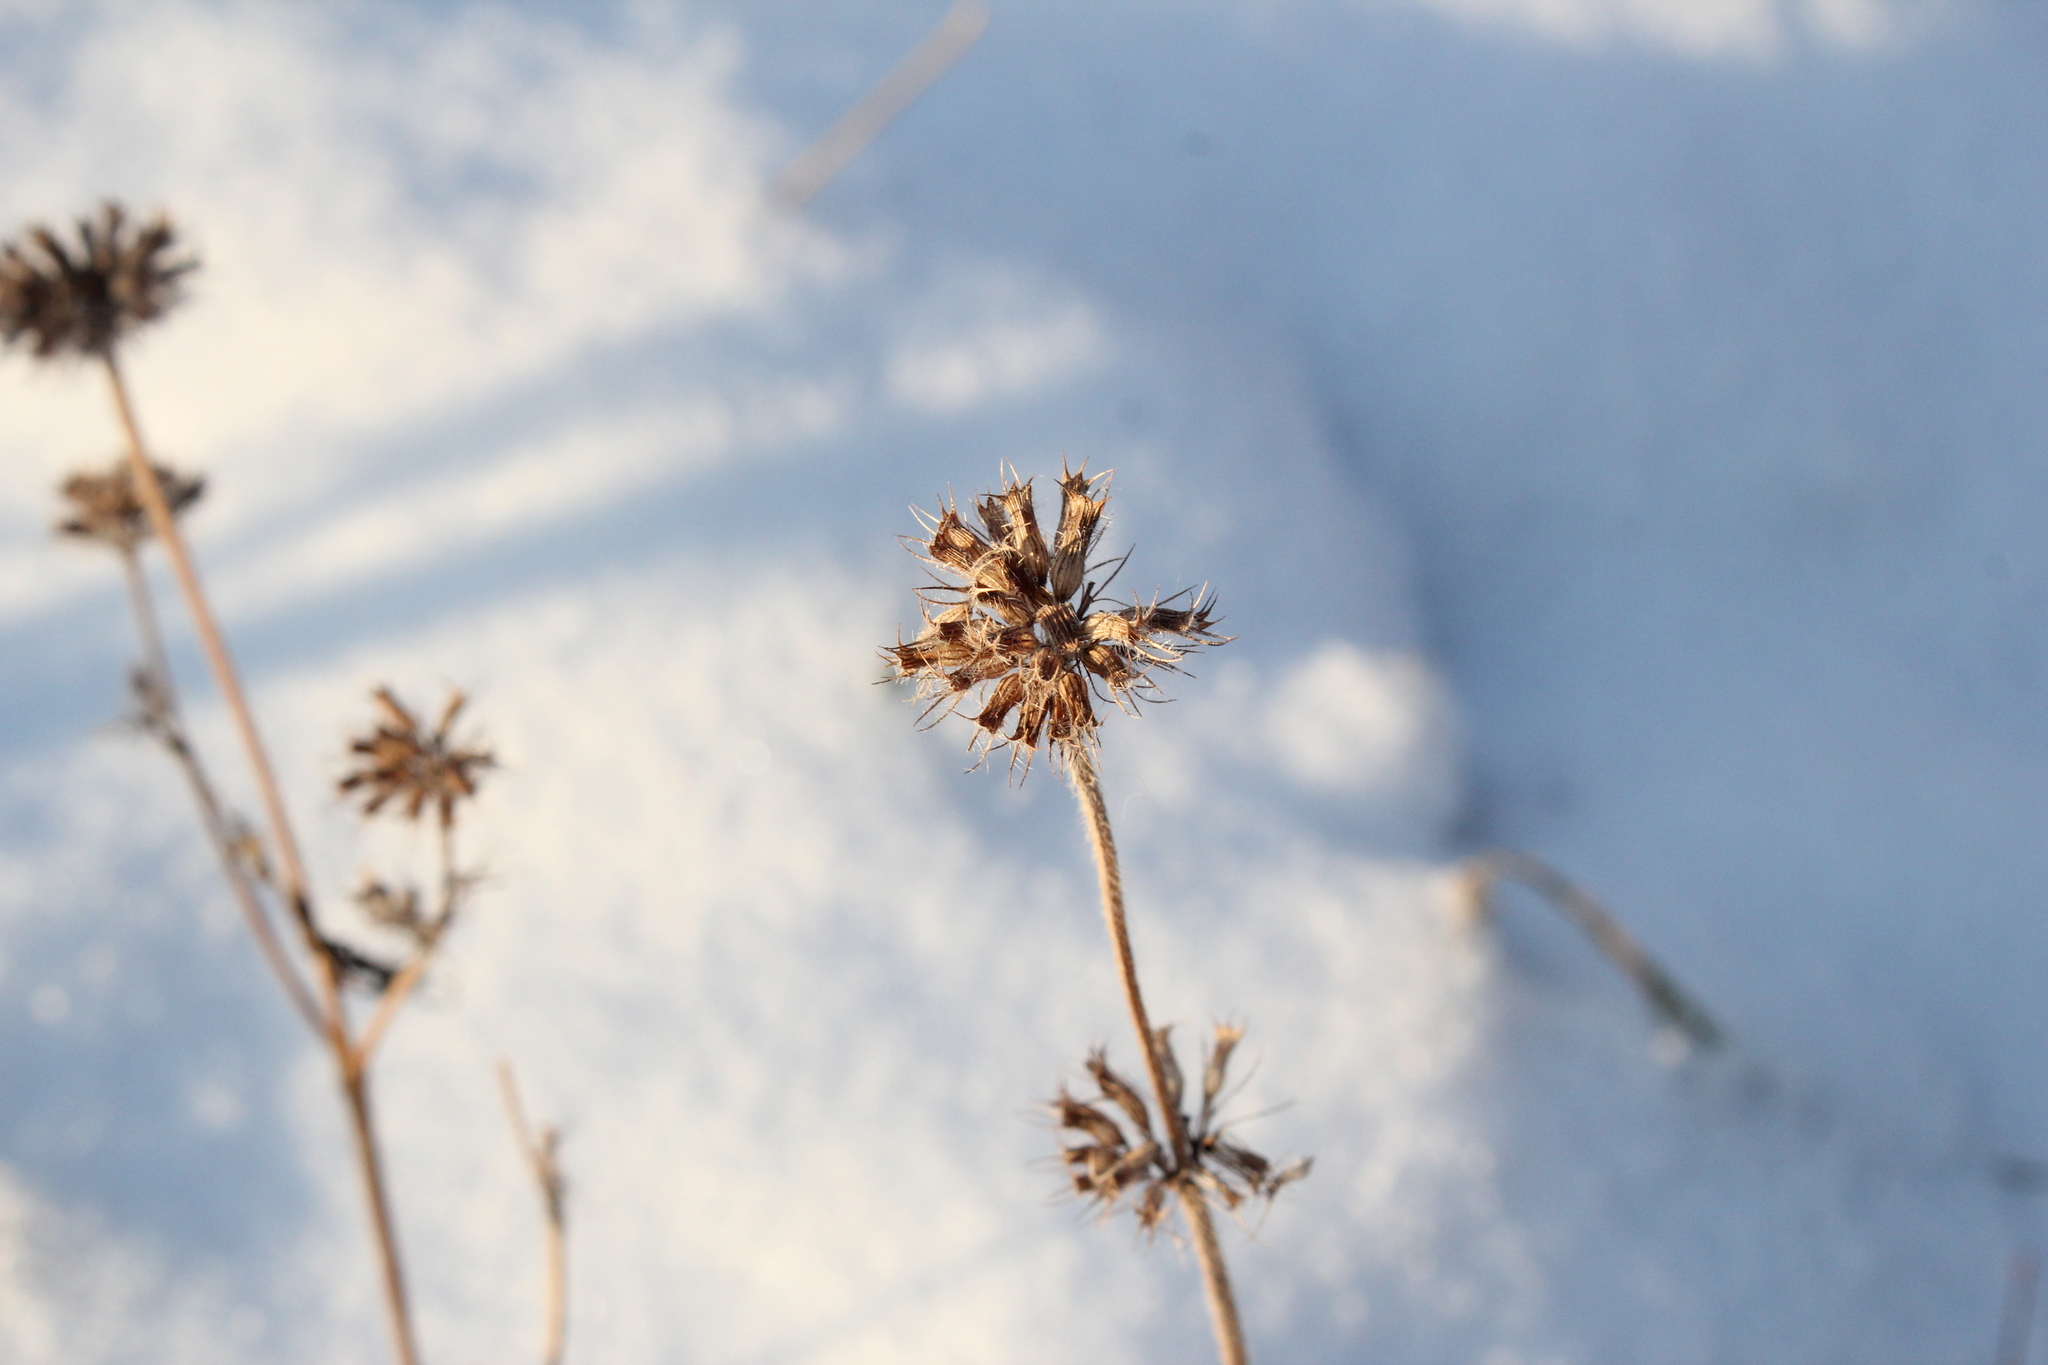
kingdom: Plantae
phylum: Tracheophyta
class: Magnoliopsida
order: Lamiales
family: Lamiaceae
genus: Clinopodium
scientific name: Clinopodium vulgare
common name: Wild basil
